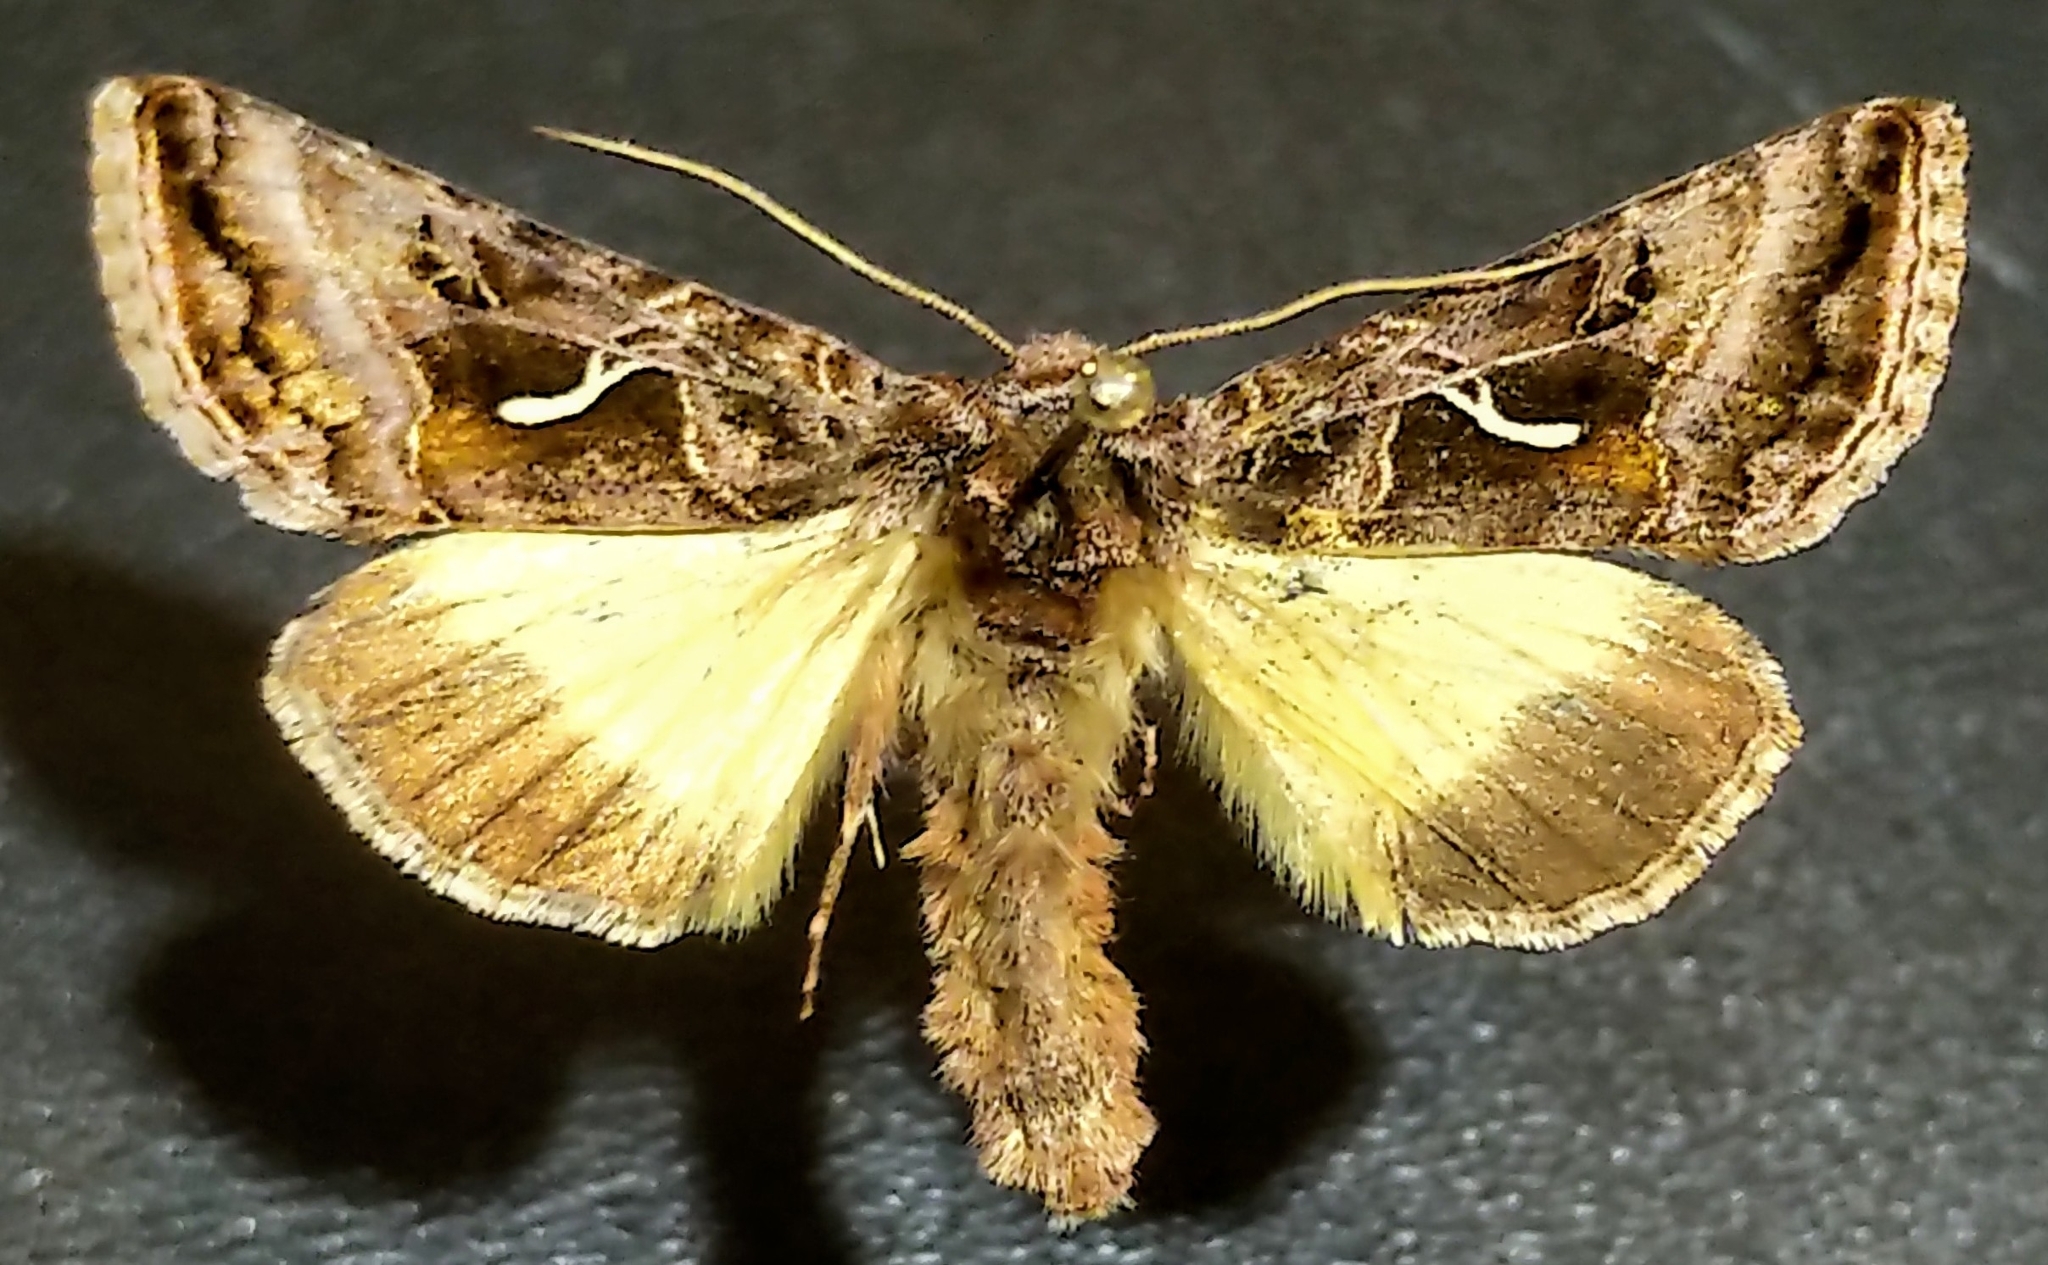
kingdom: Animalia
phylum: Arthropoda
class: Insecta
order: Lepidoptera
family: Noctuidae
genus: Autographa
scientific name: Autographa sansoni
